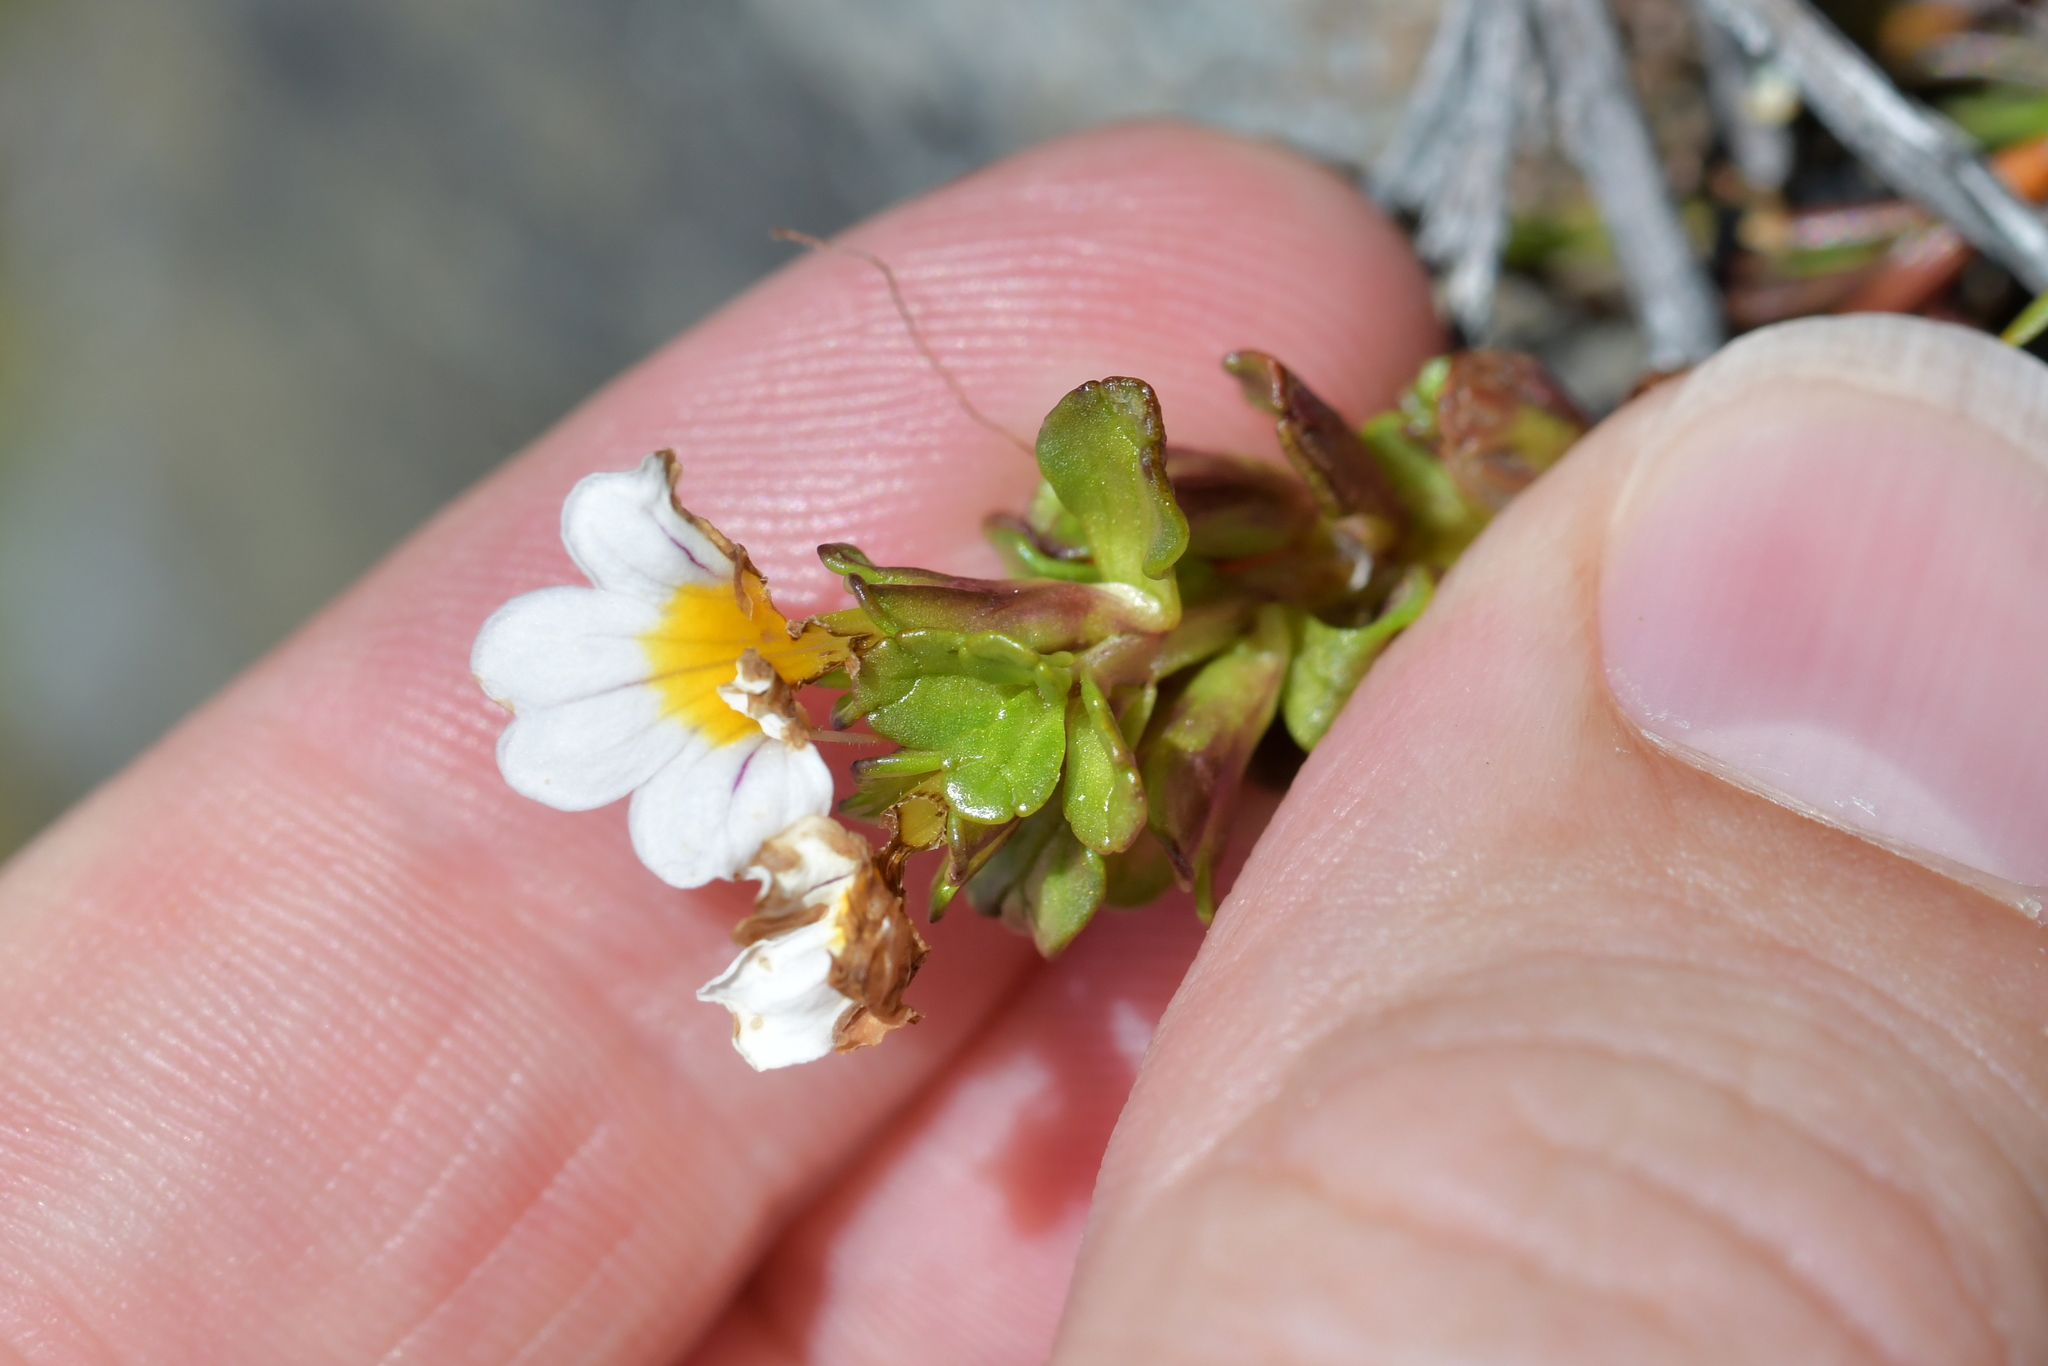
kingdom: Plantae
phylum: Tracheophyta
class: Magnoliopsida
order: Lamiales
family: Orobanchaceae
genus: Euphrasia
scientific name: Euphrasia monroi
